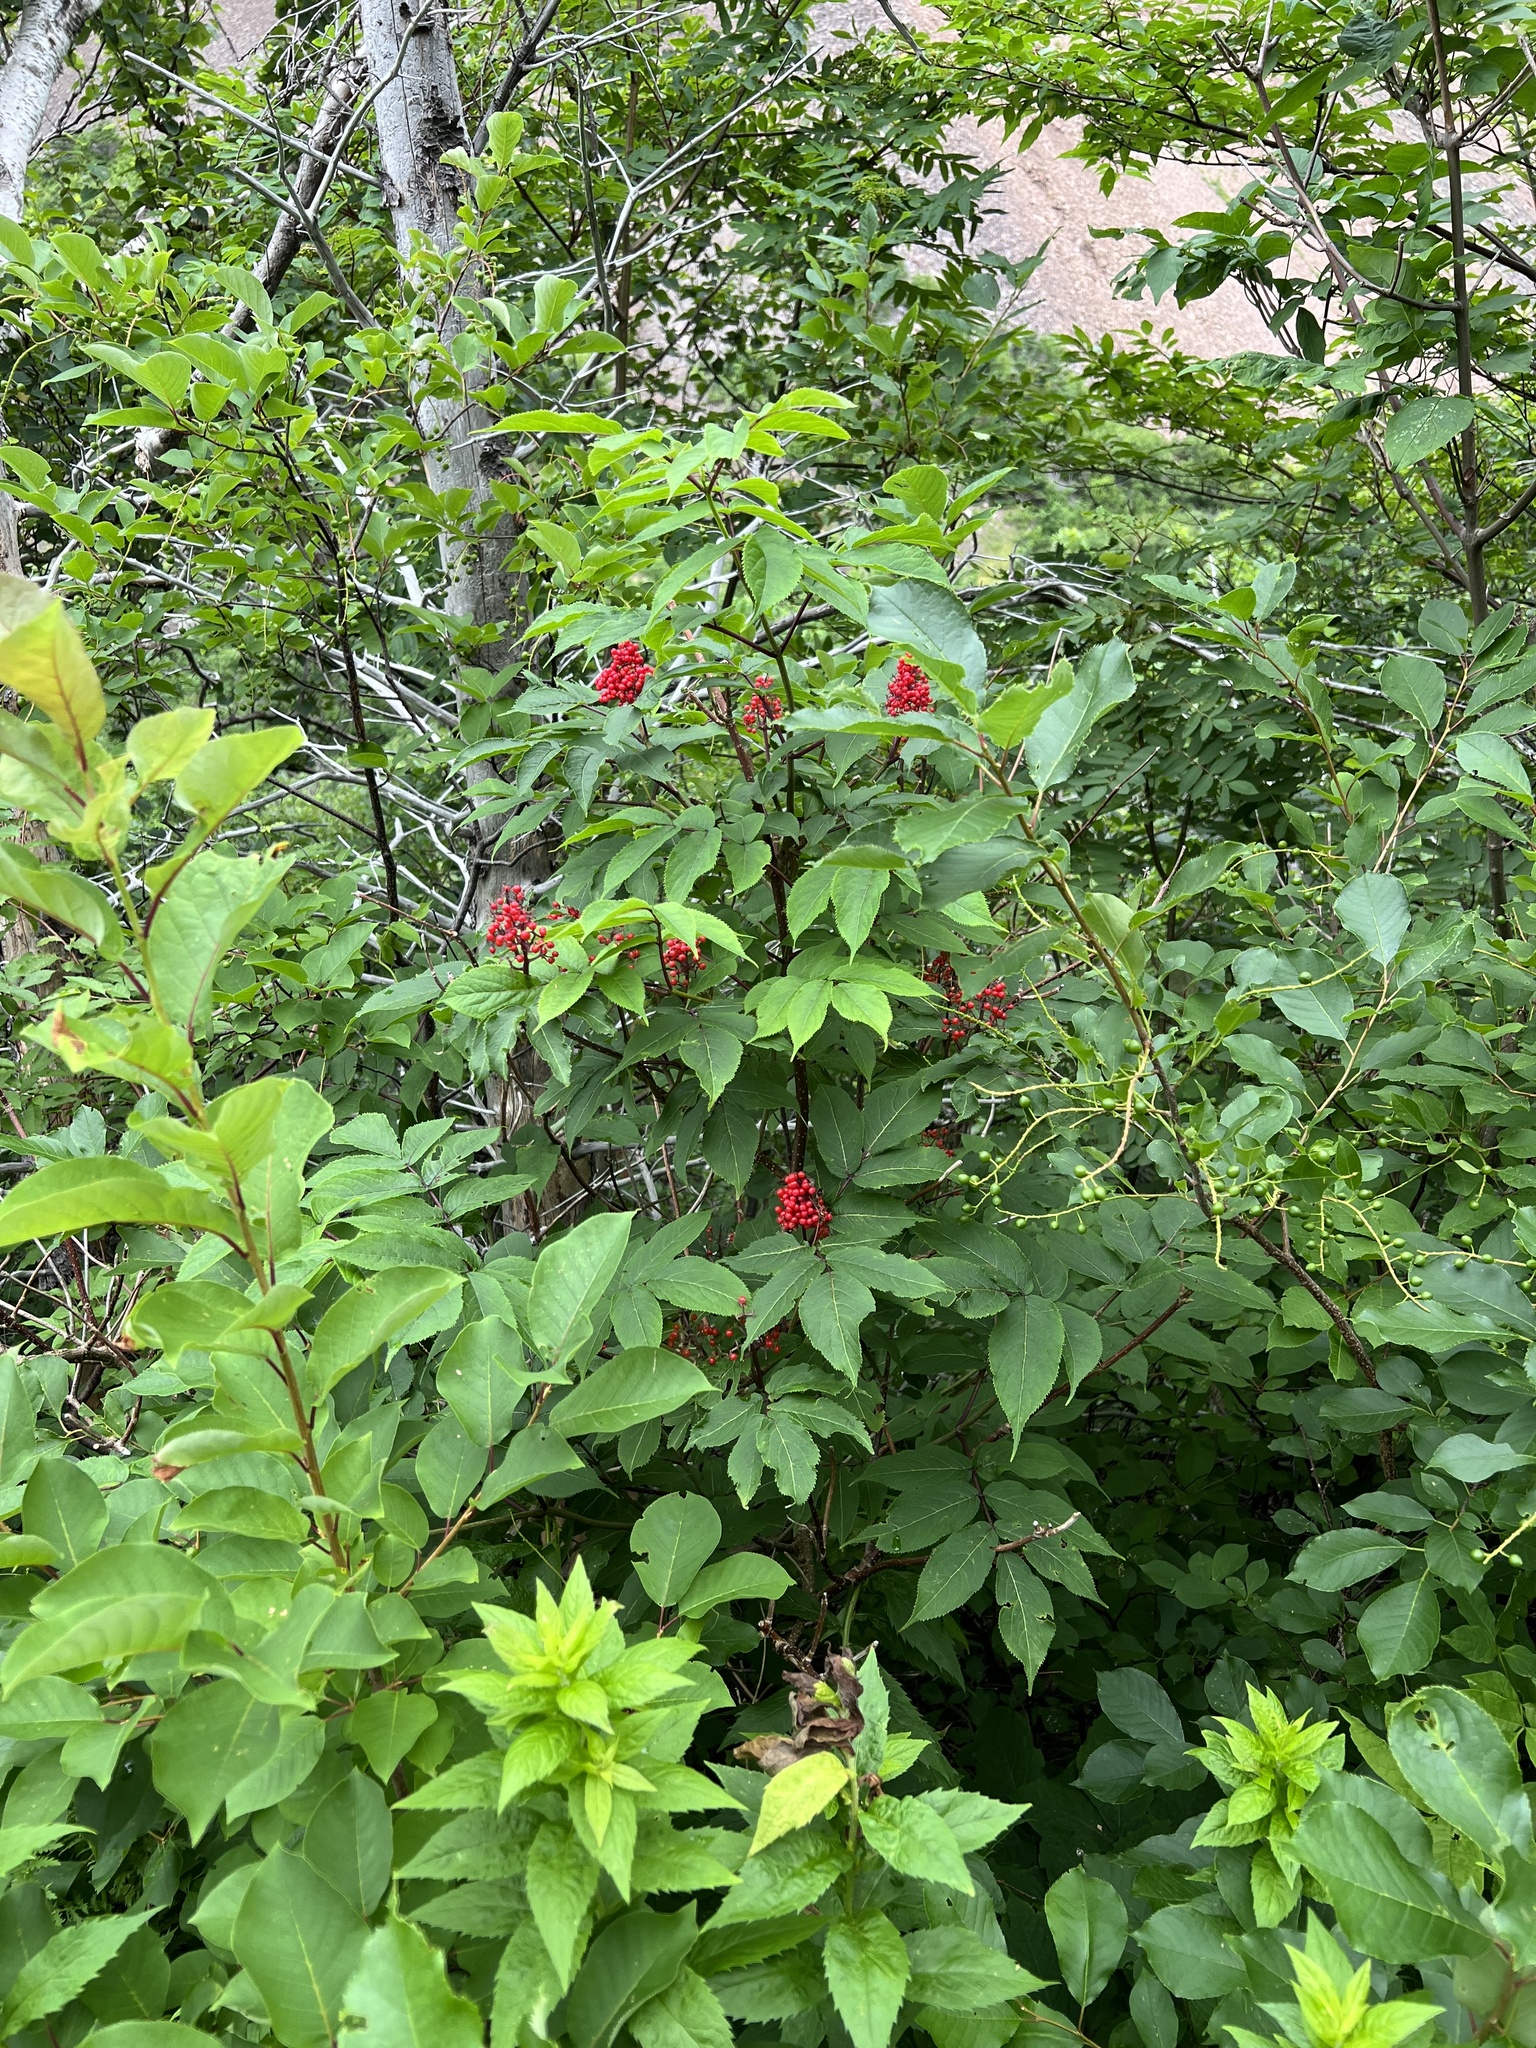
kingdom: Plantae
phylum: Tracheophyta
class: Magnoliopsida
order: Dipsacales
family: Viburnaceae
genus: Sambucus
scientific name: Sambucus racemosa
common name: Red-berried elder
